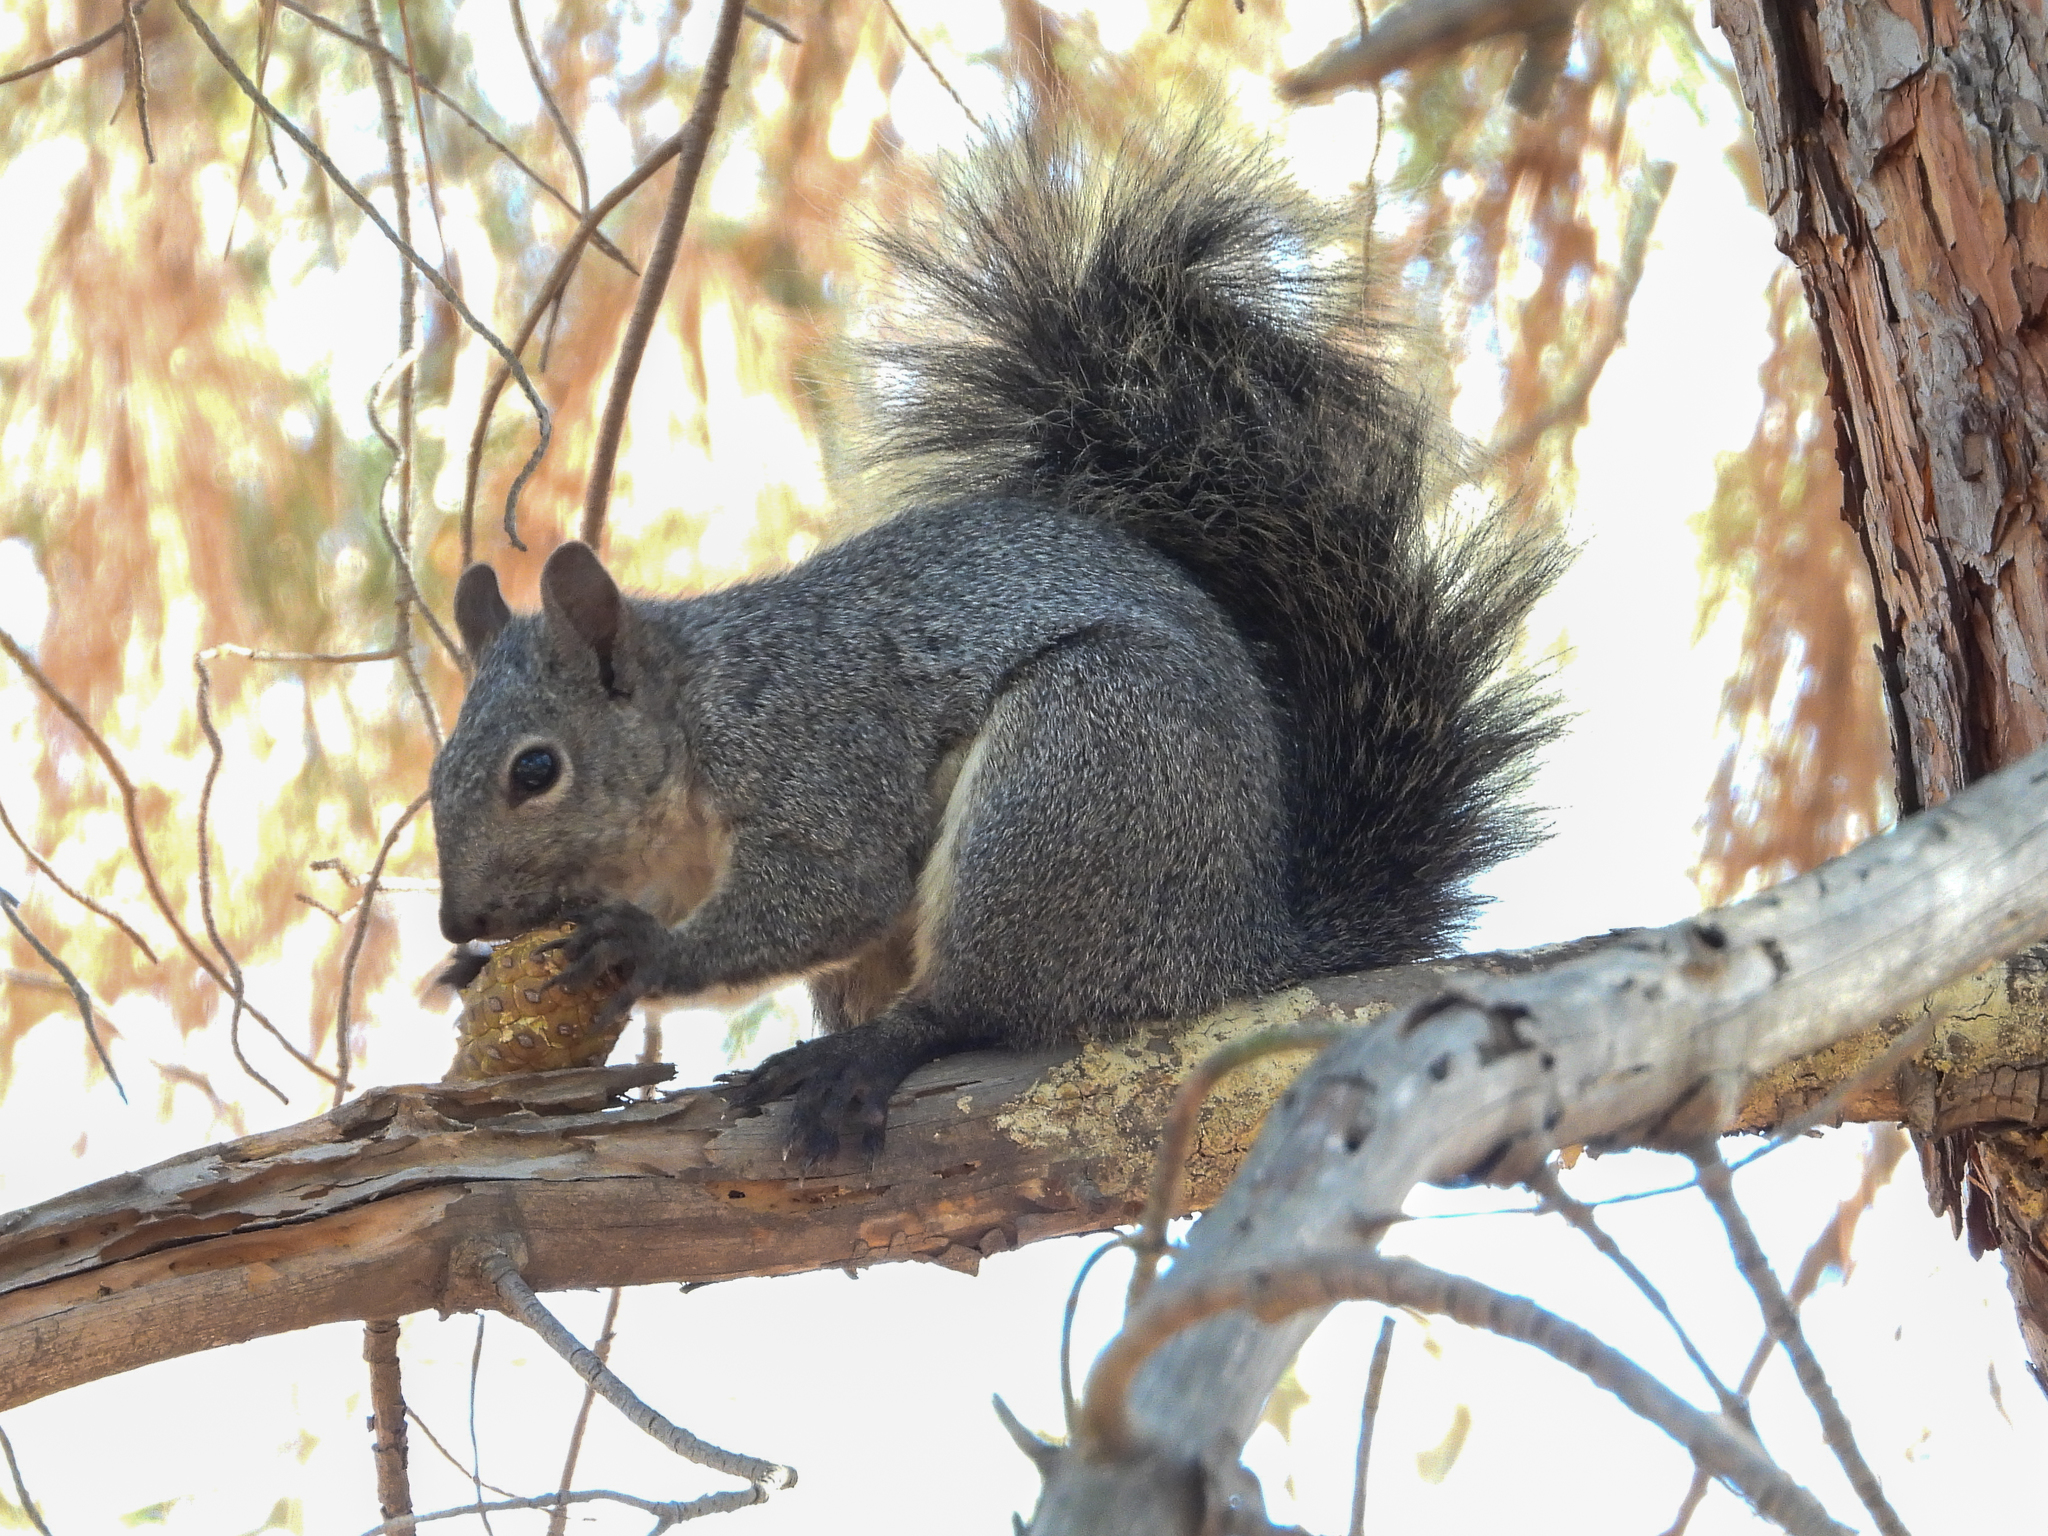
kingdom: Animalia
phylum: Chordata
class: Mammalia
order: Rodentia
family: Sciuridae
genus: Sciurus
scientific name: Sciurus griseus
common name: Western gray squirrel
